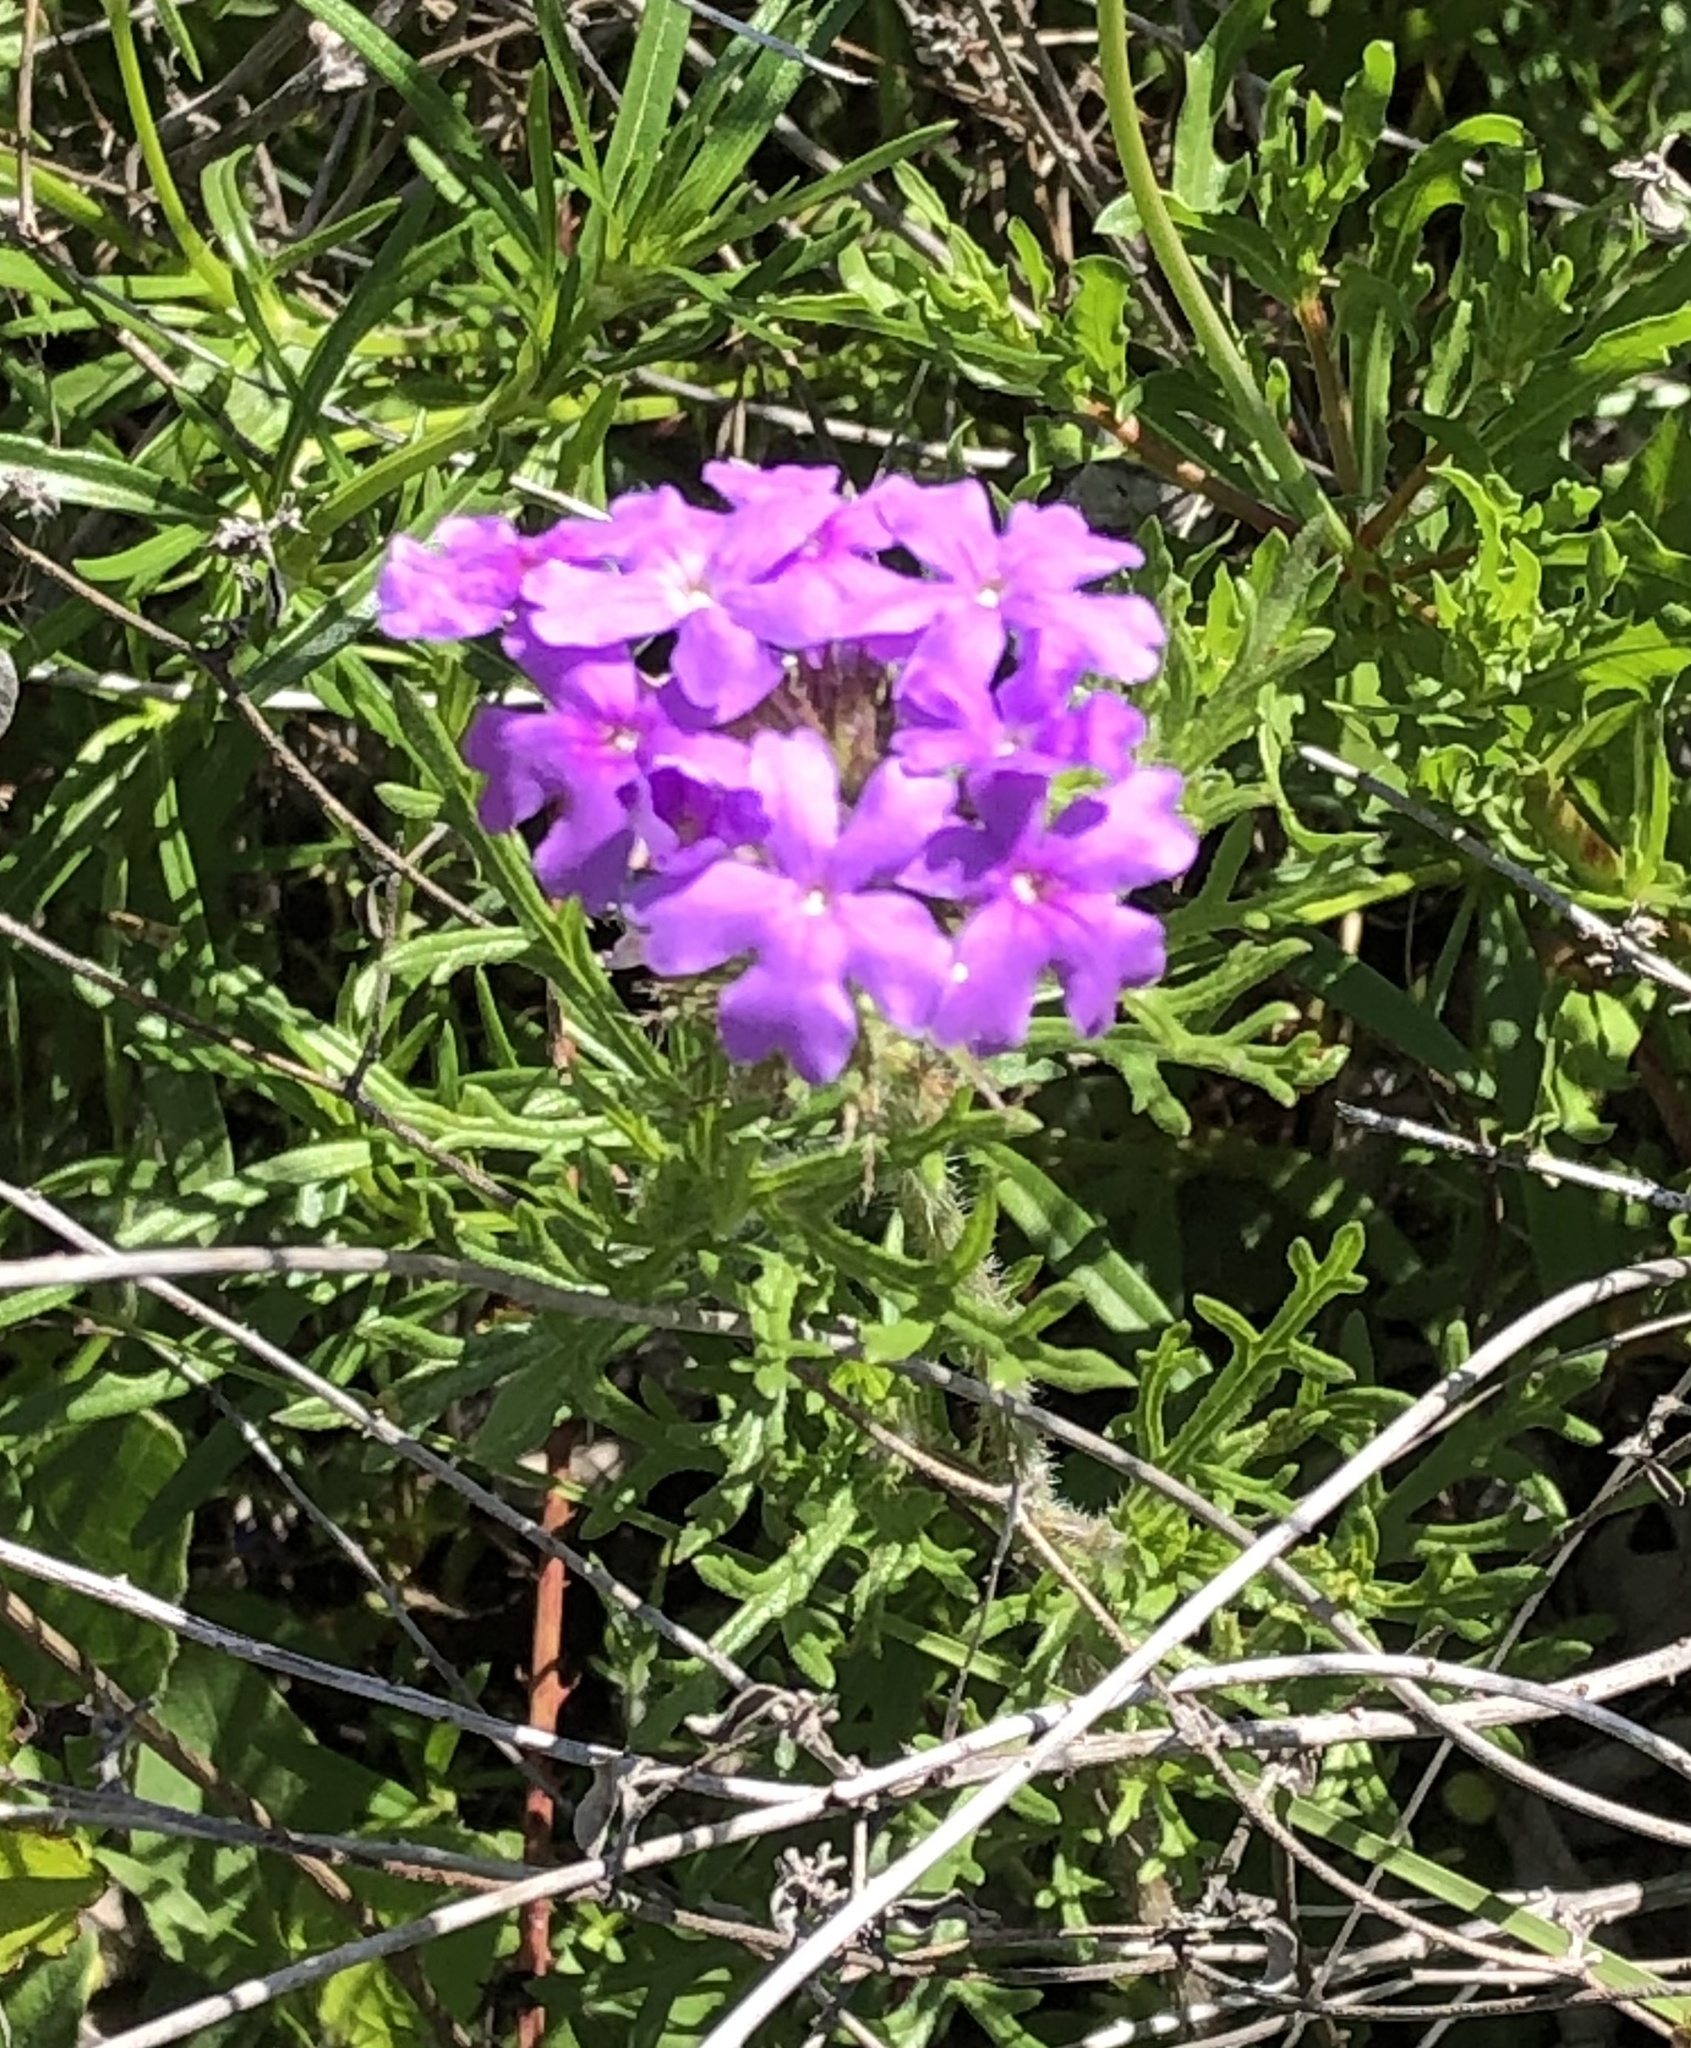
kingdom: Plantae
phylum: Tracheophyta
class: Magnoliopsida
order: Lamiales
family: Verbenaceae
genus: Verbena
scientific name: Verbena bipinnatifida
